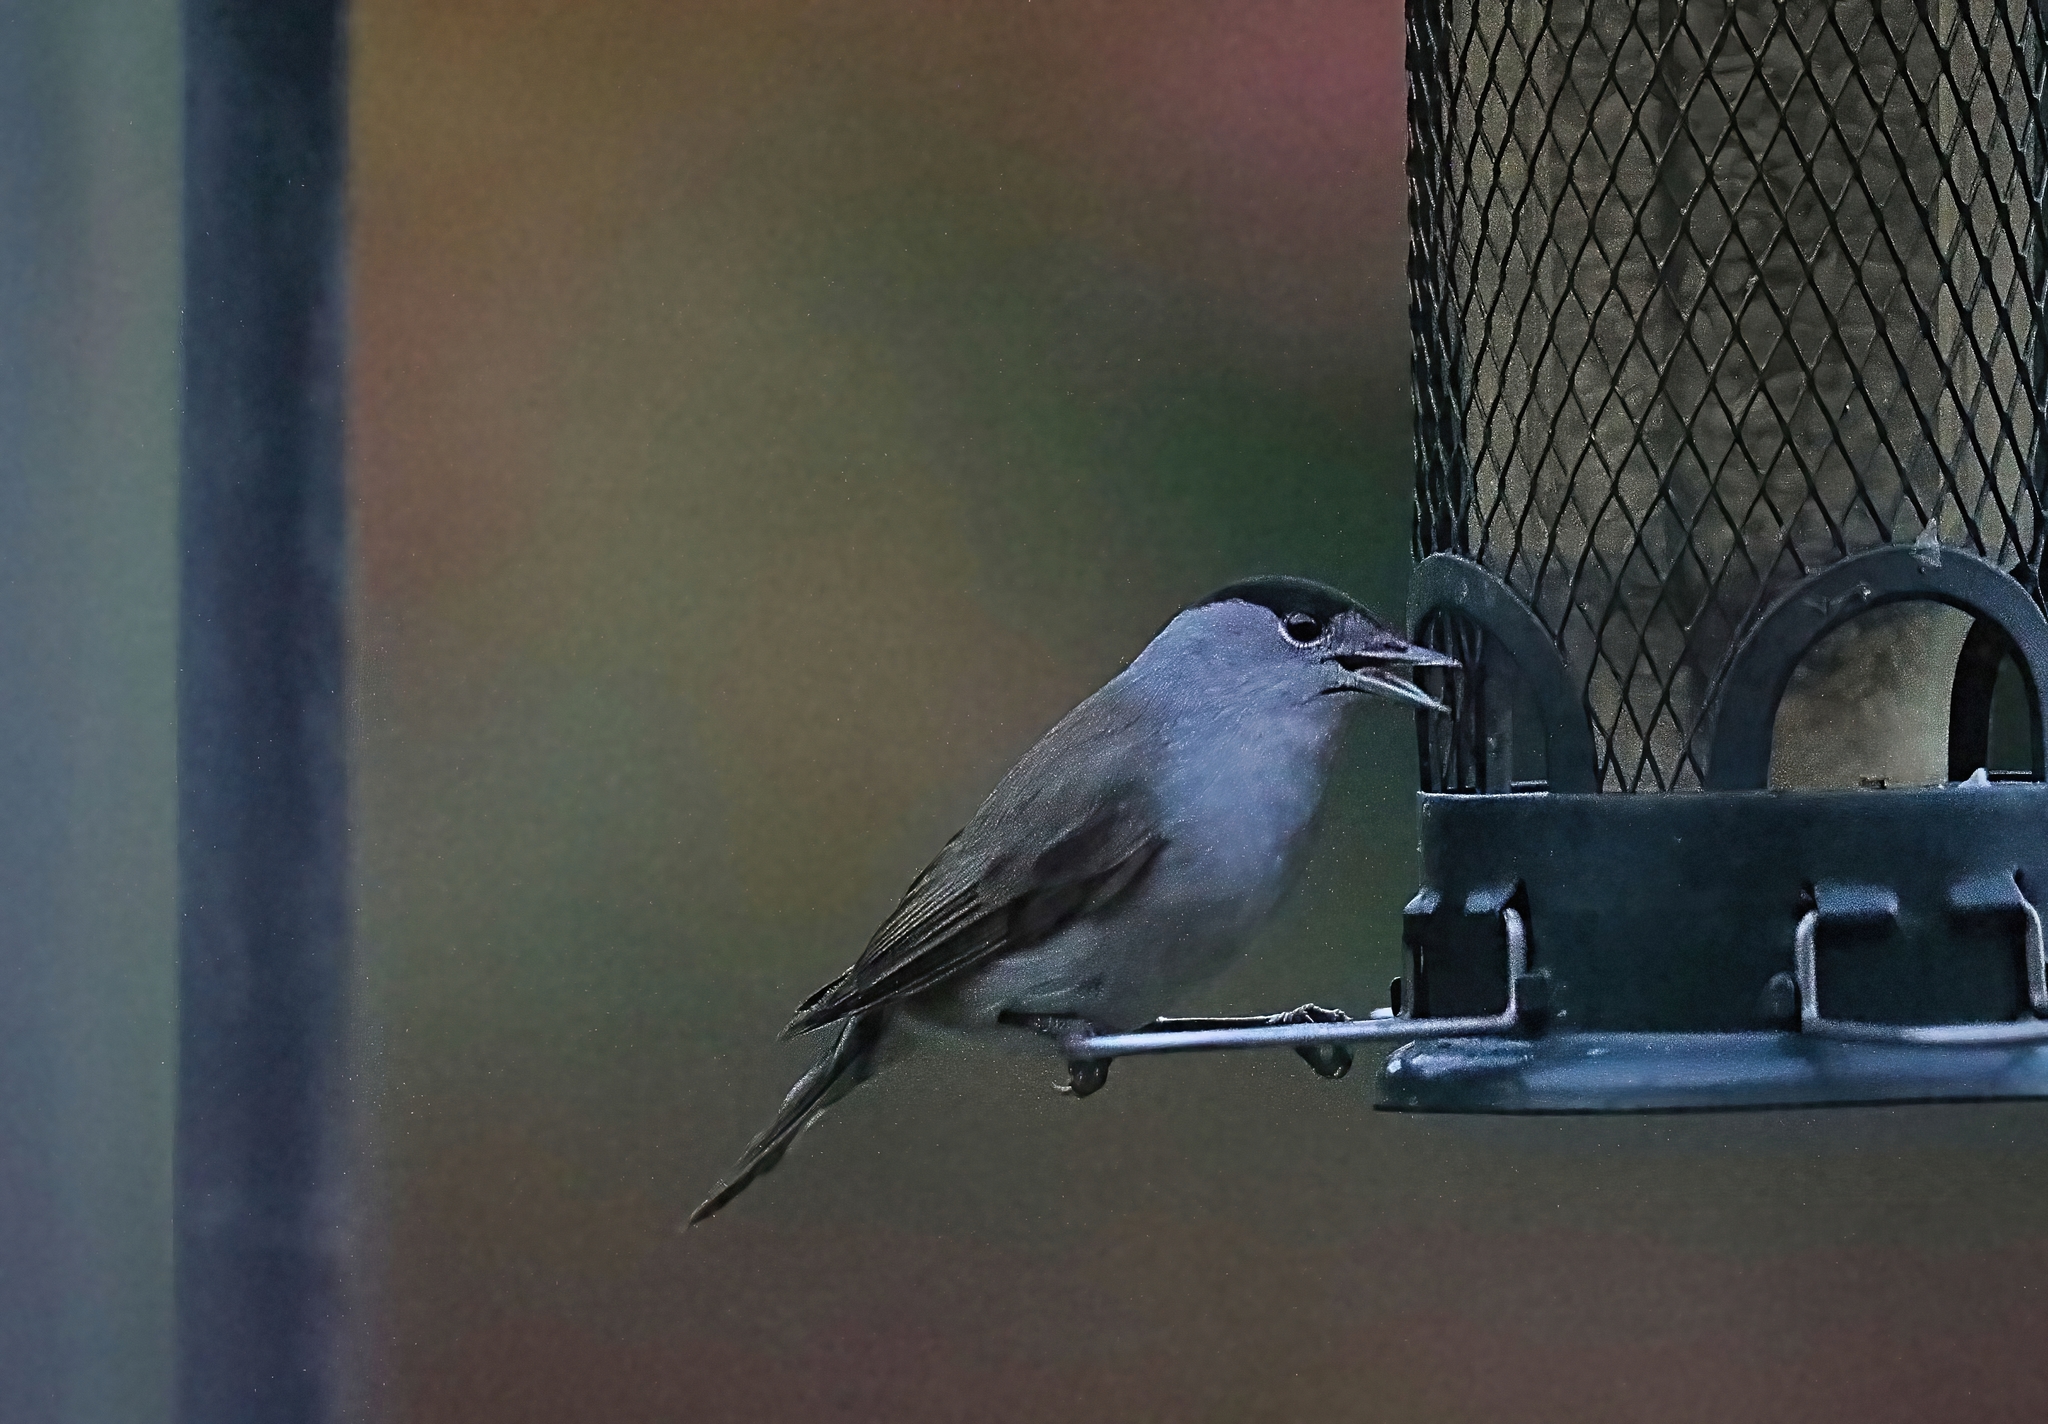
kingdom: Animalia
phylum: Chordata
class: Aves
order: Passeriformes
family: Sylviidae
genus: Sylvia
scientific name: Sylvia atricapilla
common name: Eurasian blackcap
